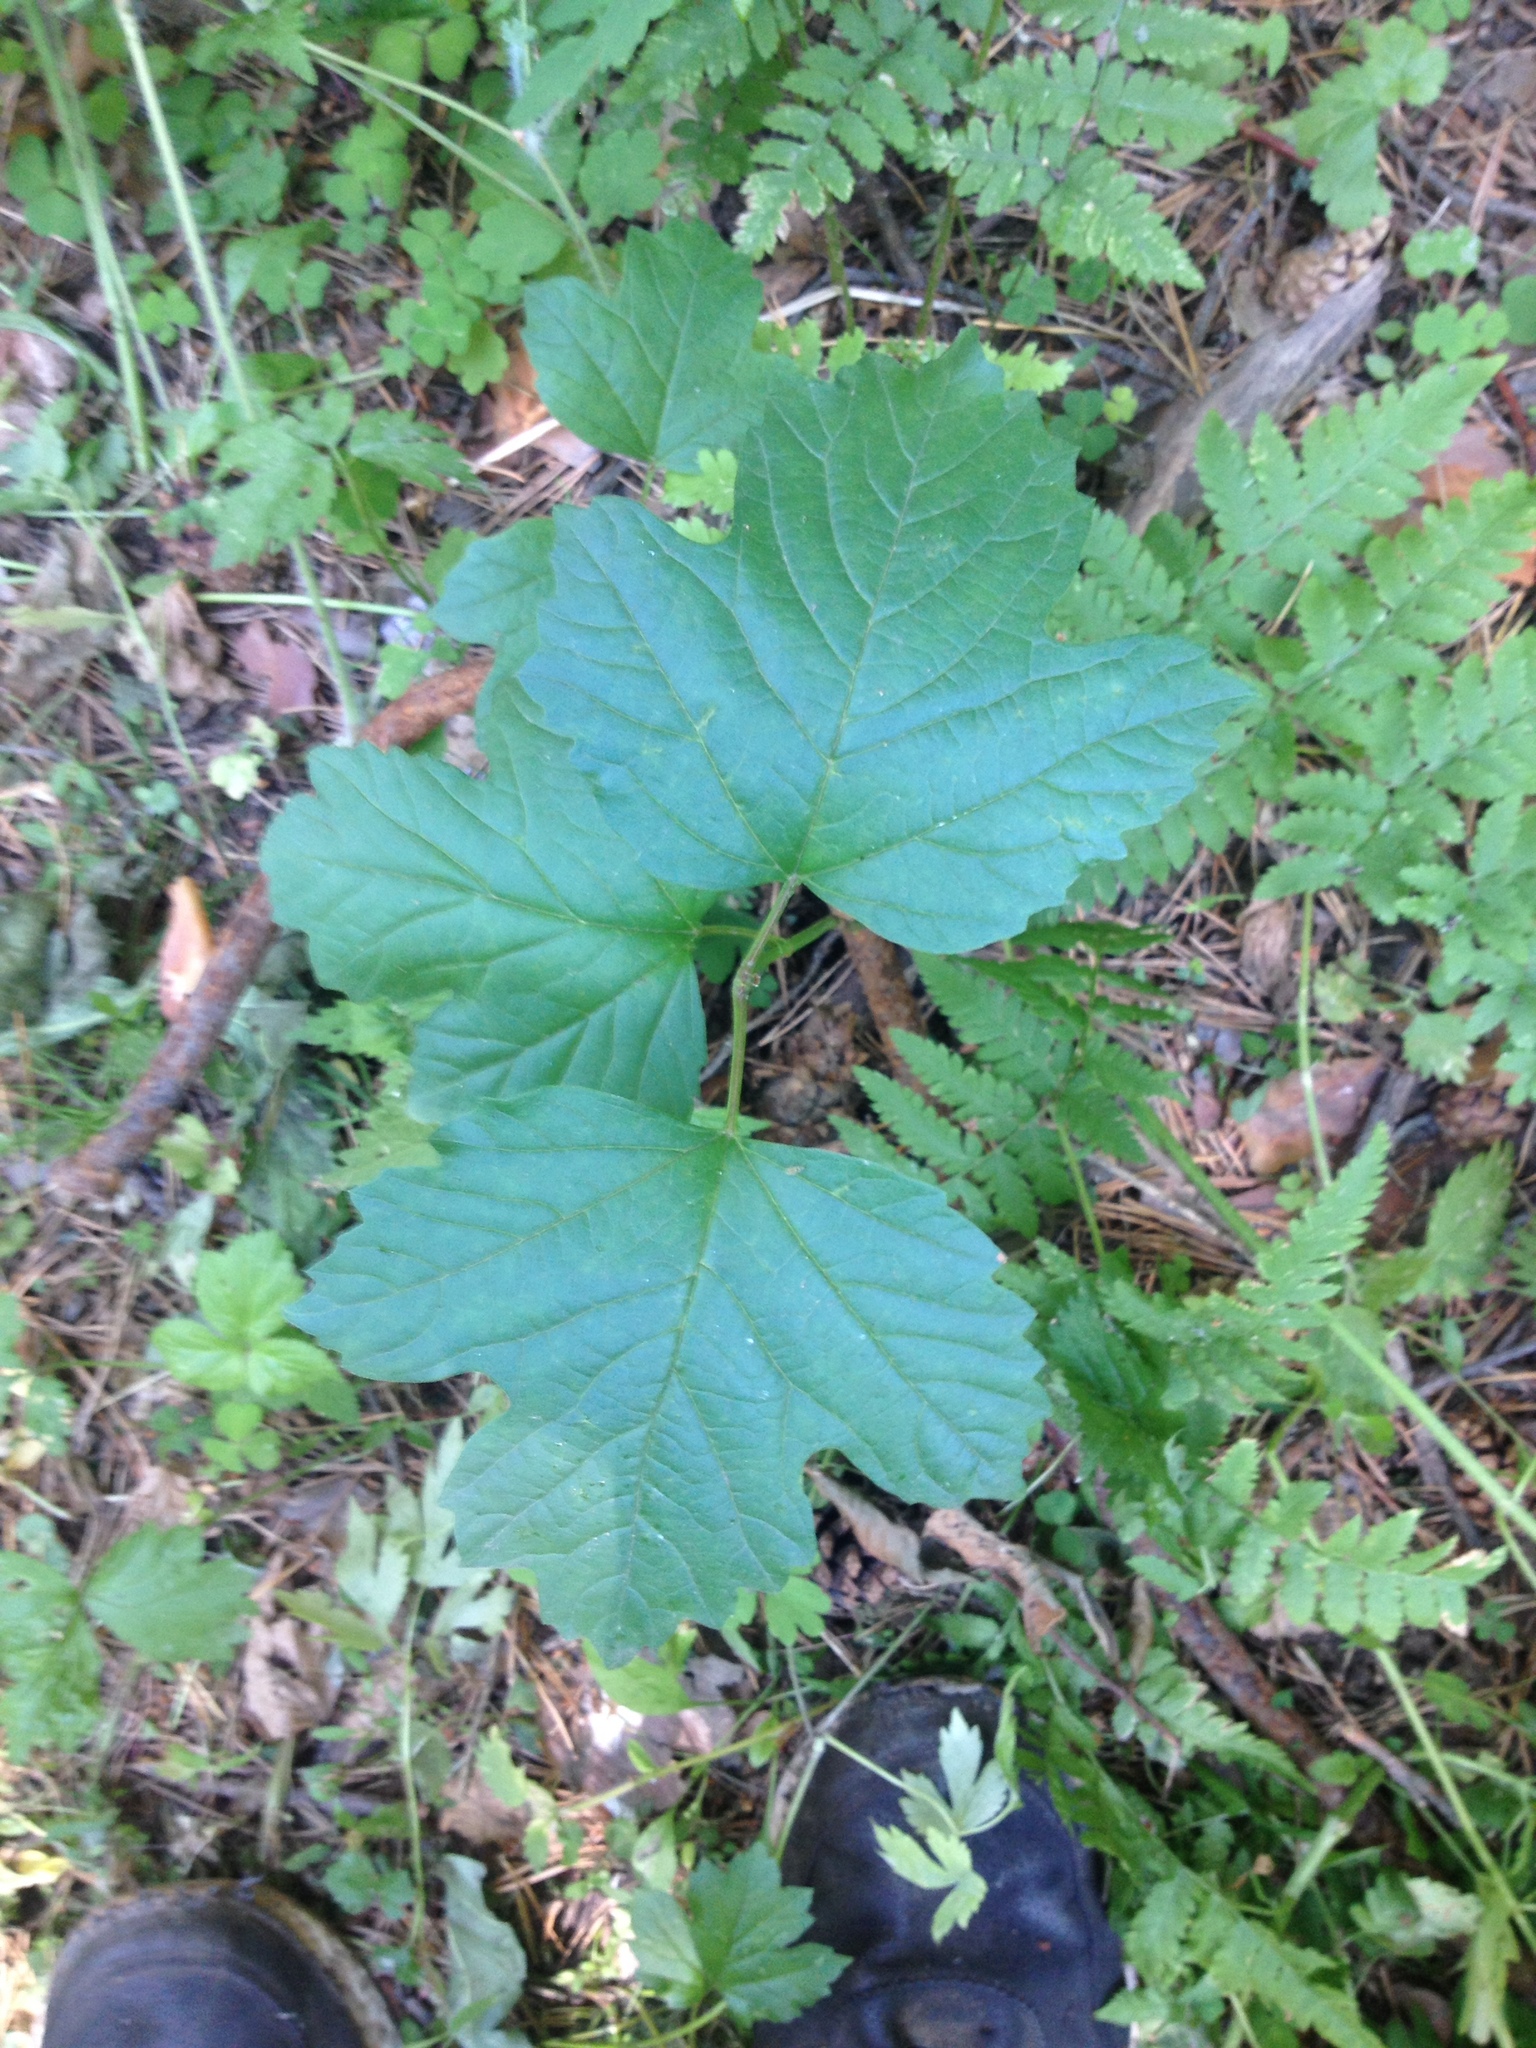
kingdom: Plantae
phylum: Tracheophyta
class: Magnoliopsida
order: Dipsacales
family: Viburnaceae
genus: Viburnum
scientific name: Viburnum opulus
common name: Guelder-rose
